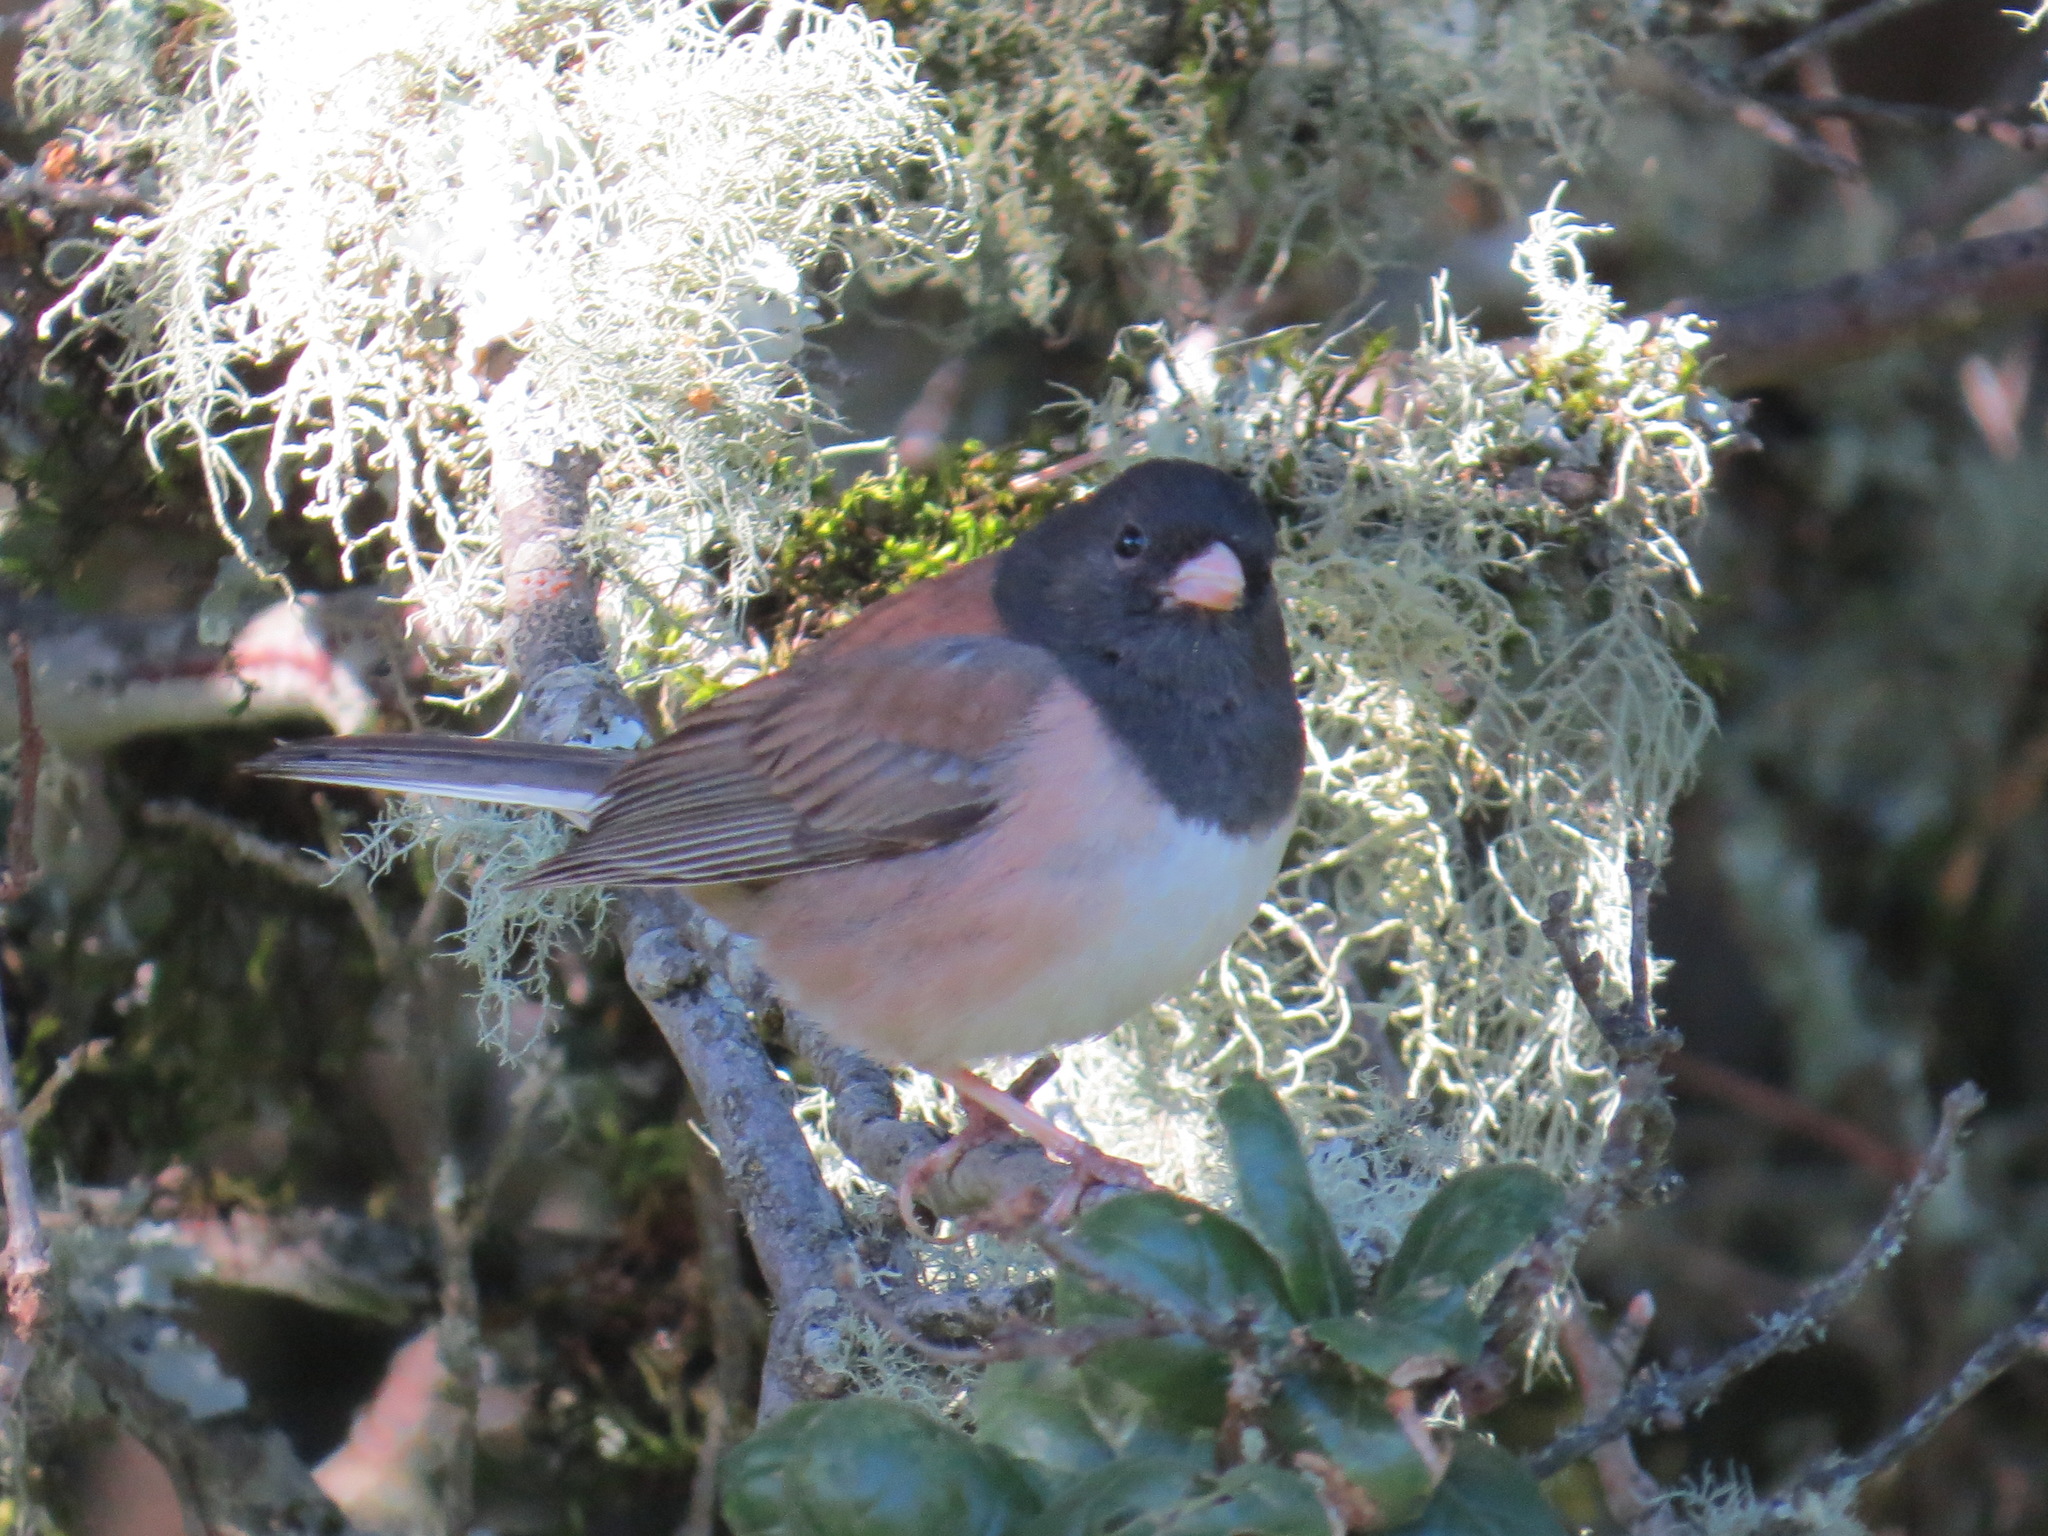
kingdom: Animalia
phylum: Chordata
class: Aves
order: Passeriformes
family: Passerellidae
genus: Junco
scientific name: Junco hyemalis
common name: Dark-eyed junco
